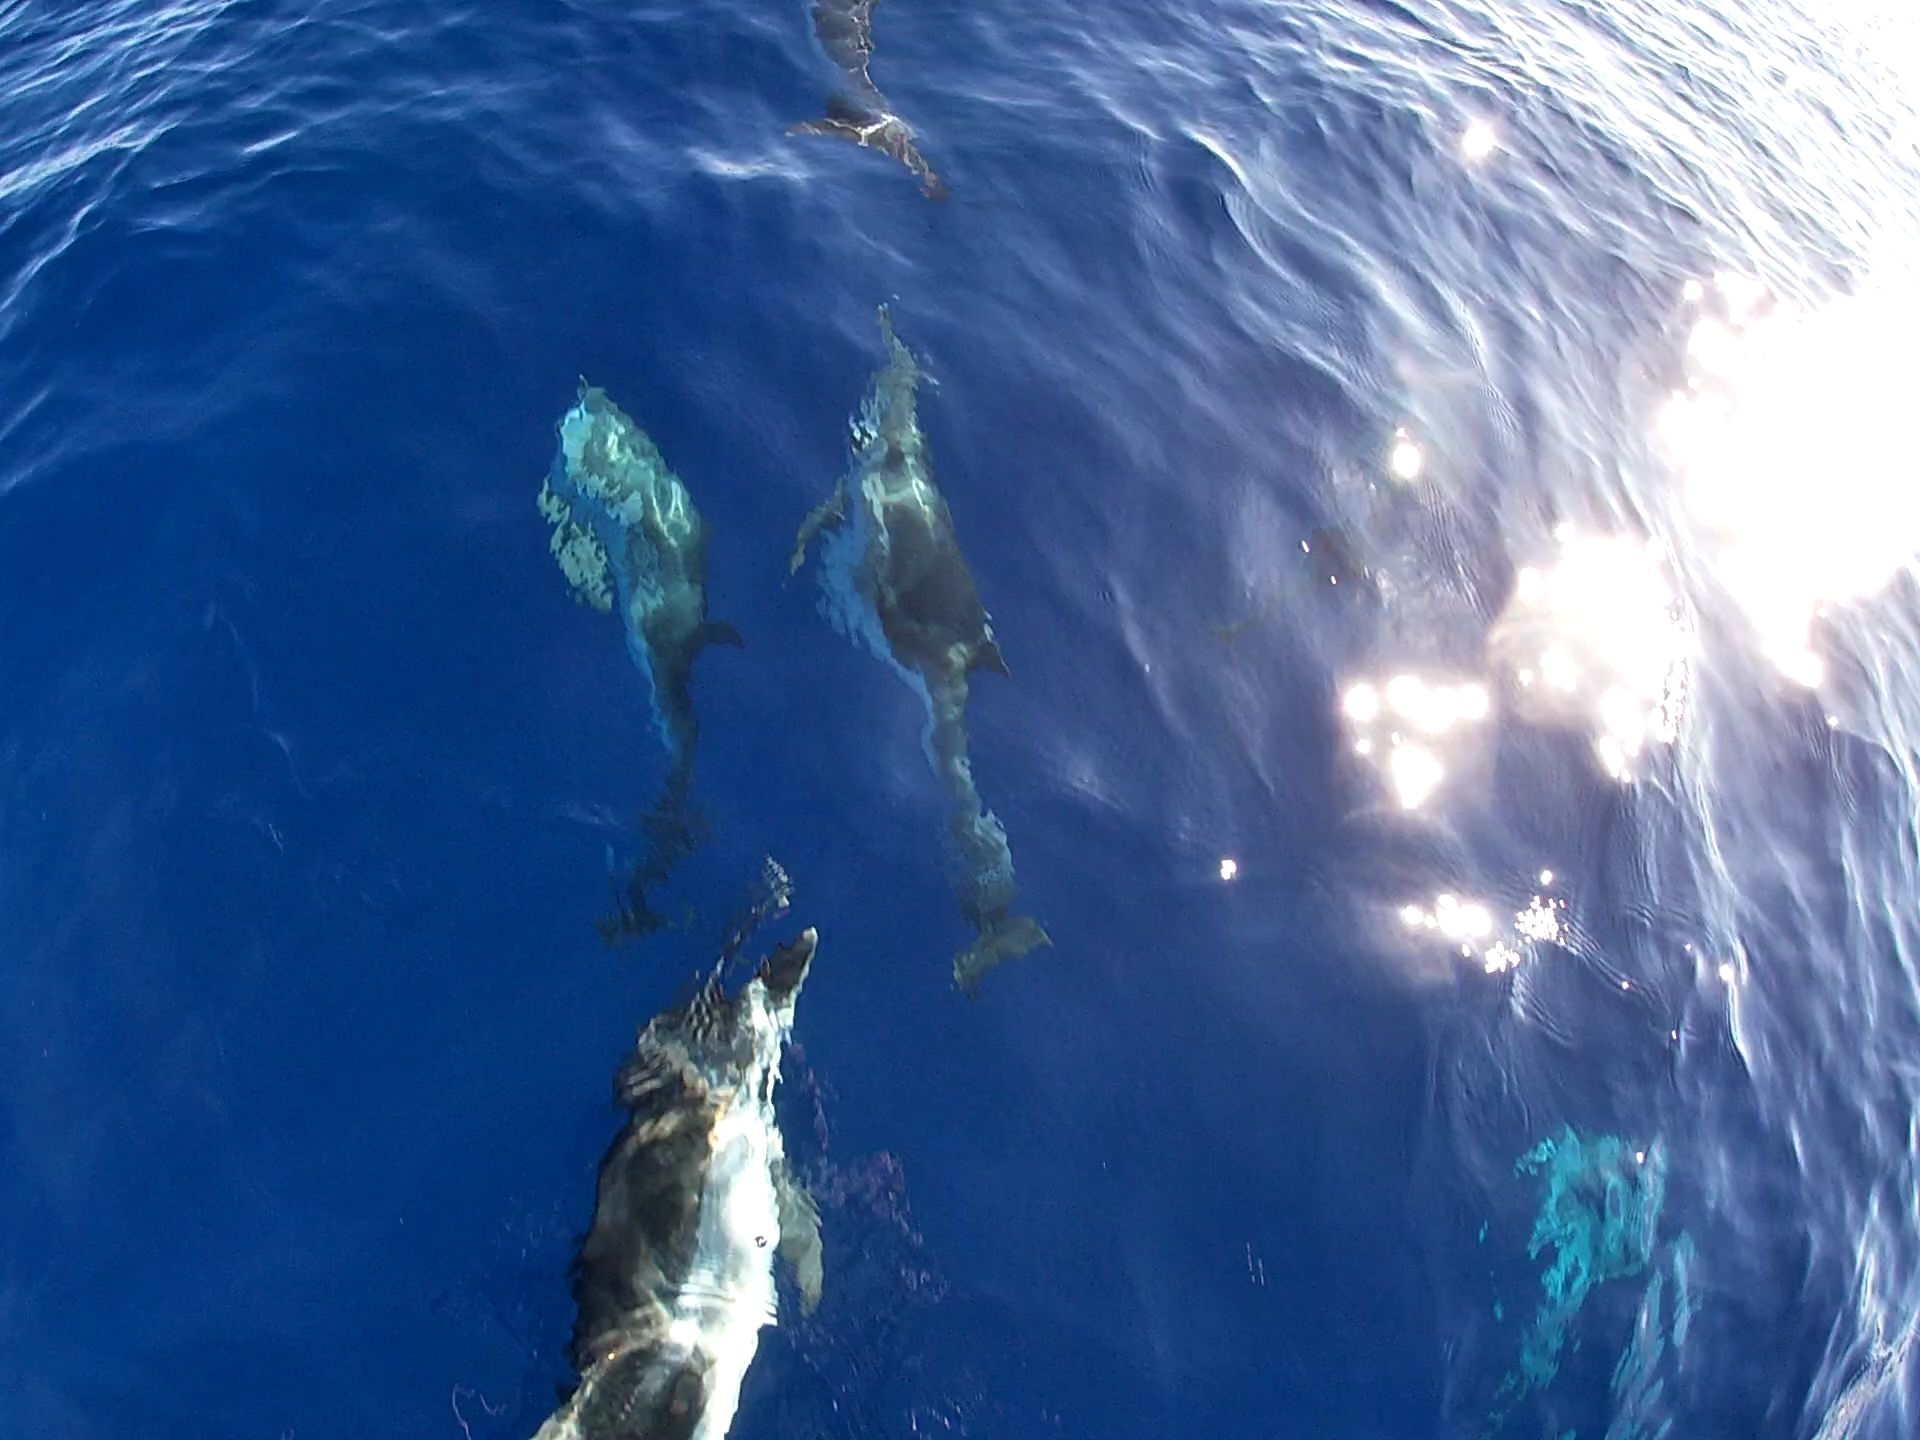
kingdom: Animalia
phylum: Chordata
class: Mammalia
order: Cetacea
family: Delphinidae
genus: Stenella
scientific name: Stenella coeruleoalba
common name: Striped dolphin
